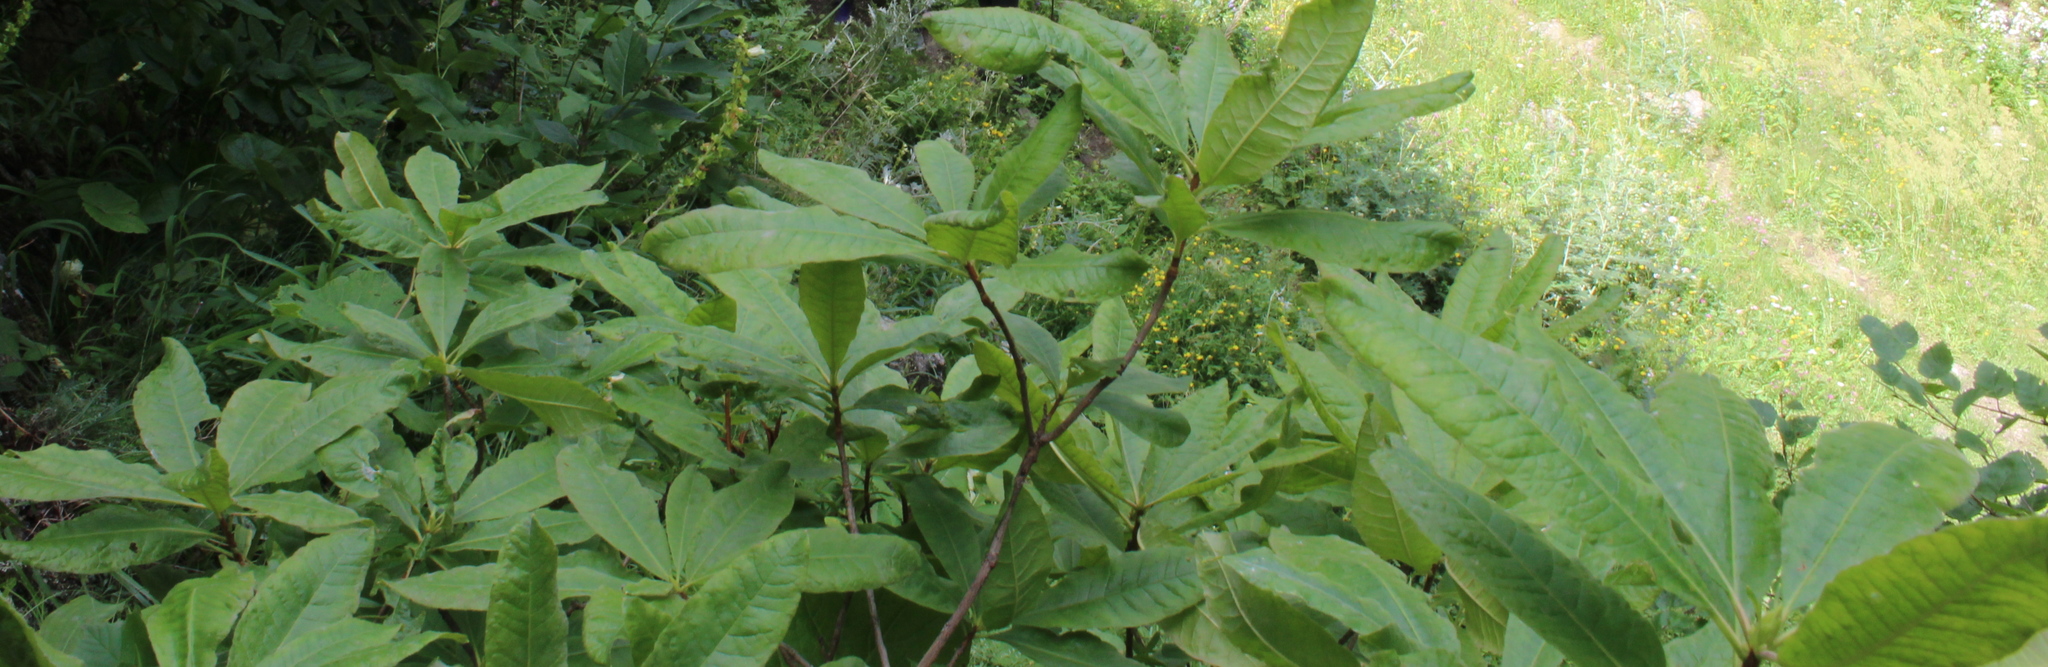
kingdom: Plantae
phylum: Tracheophyta
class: Magnoliopsida
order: Ericales
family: Ericaceae
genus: Rhododendron
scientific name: Rhododendron luteum
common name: Yellow azalea
